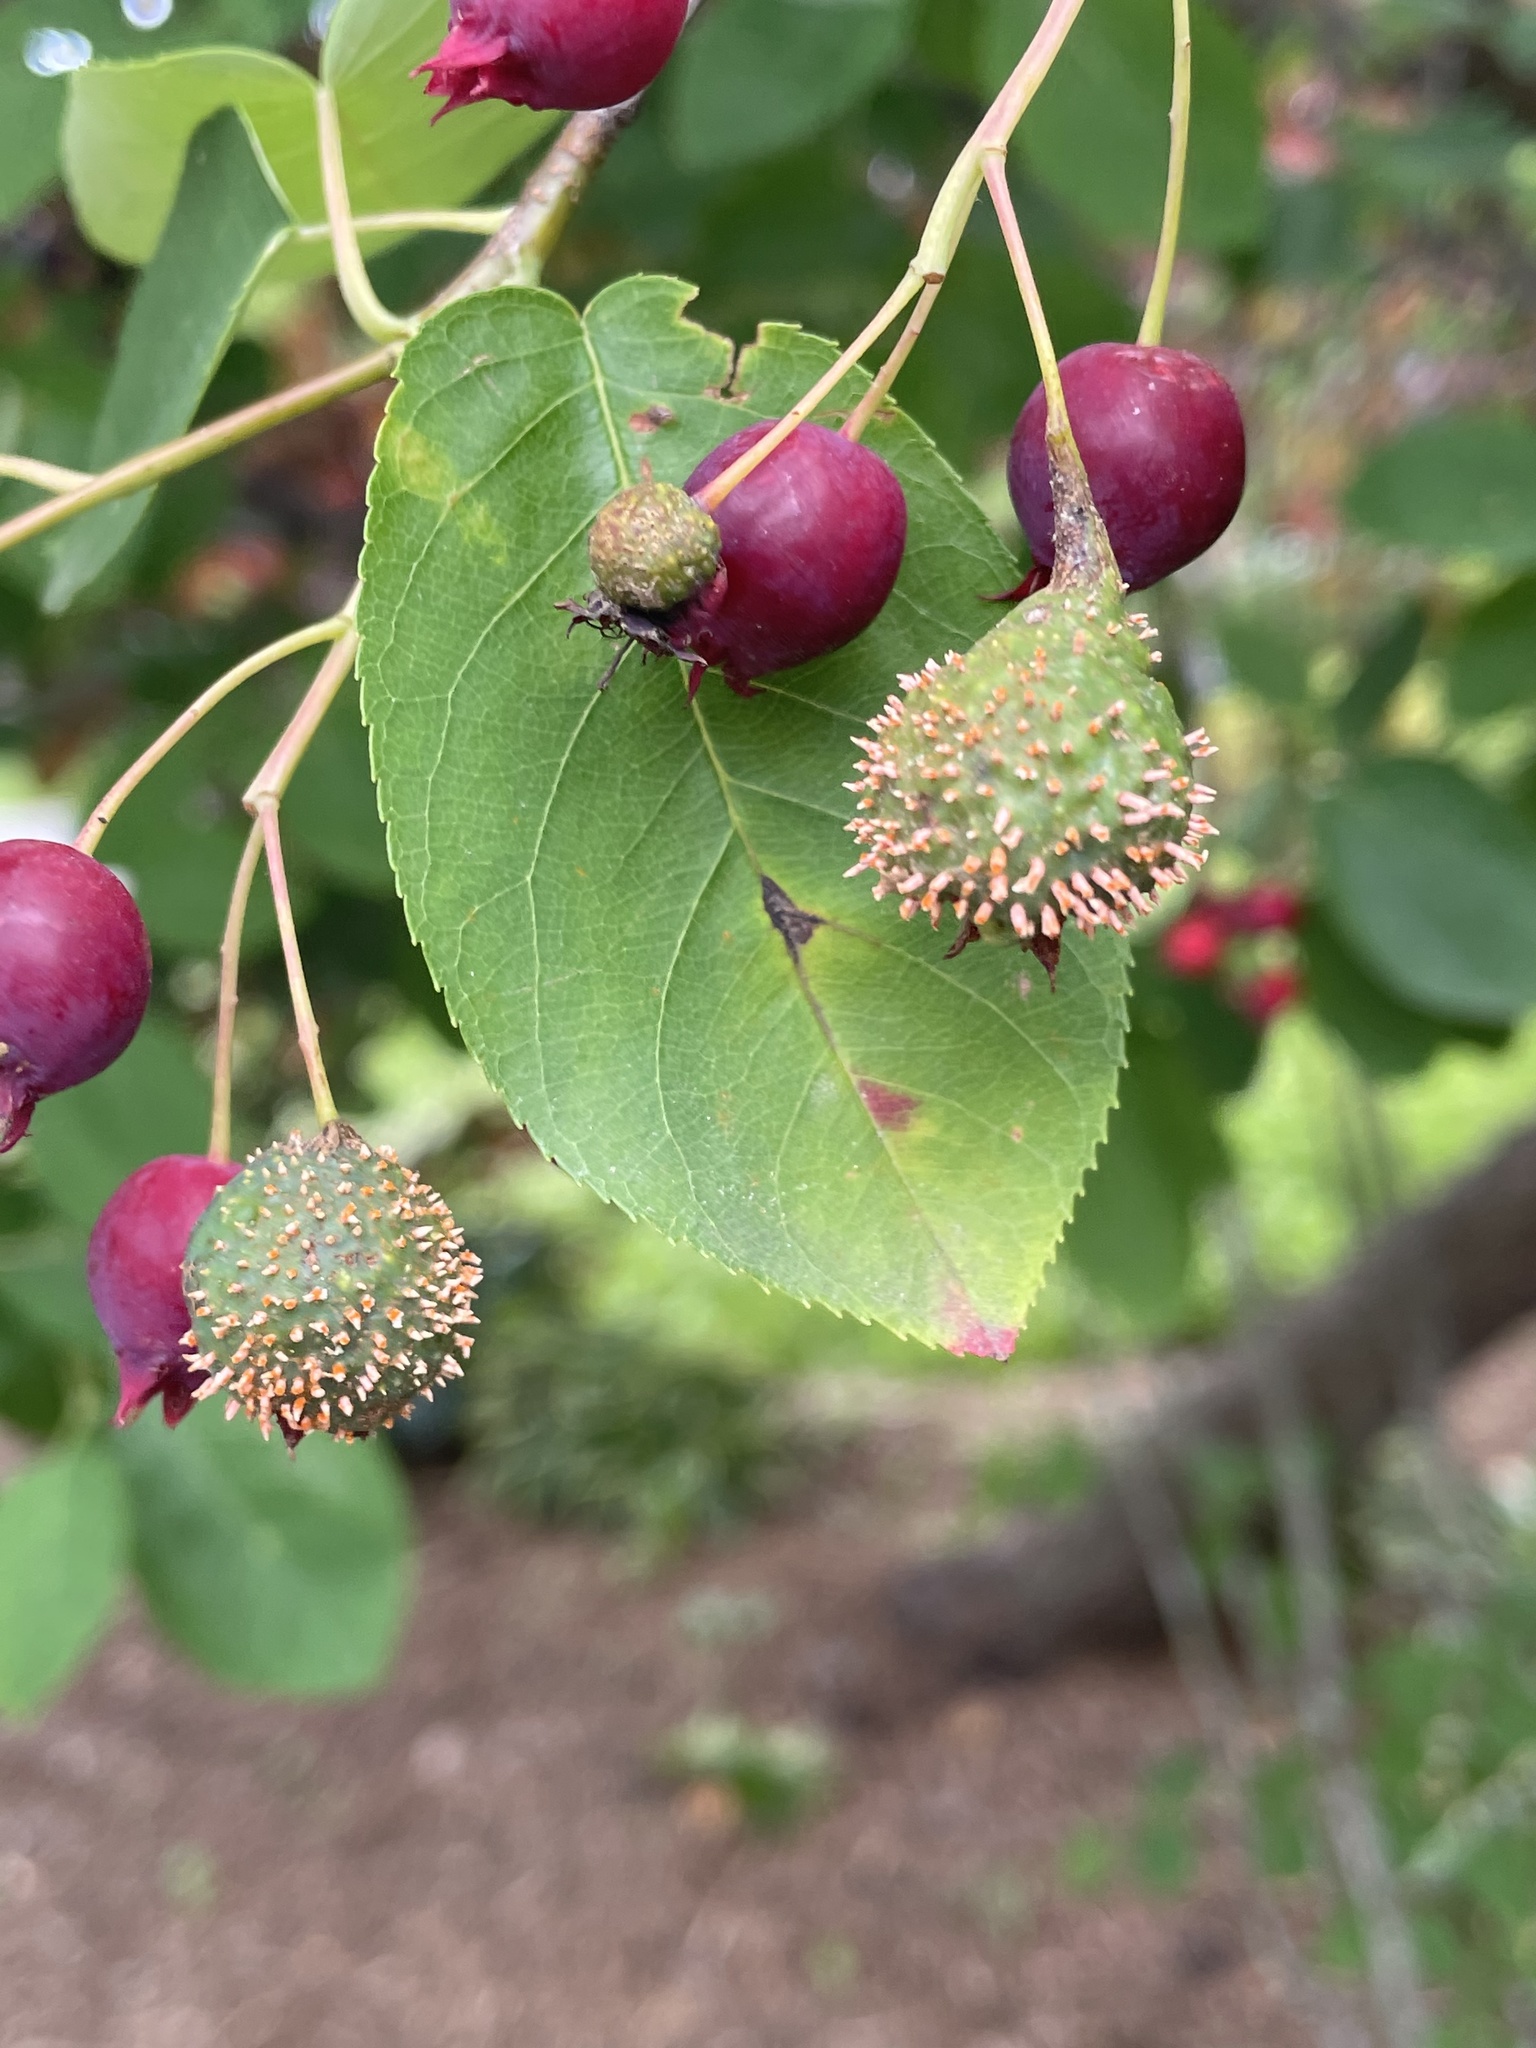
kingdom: Fungi
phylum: Basidiomycota
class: Pucciniomycetes
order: Pucciniales
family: Gymnosporangiaceae
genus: Gymnosporangium
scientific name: Gymnosporangium clavipes
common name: Quince rust
